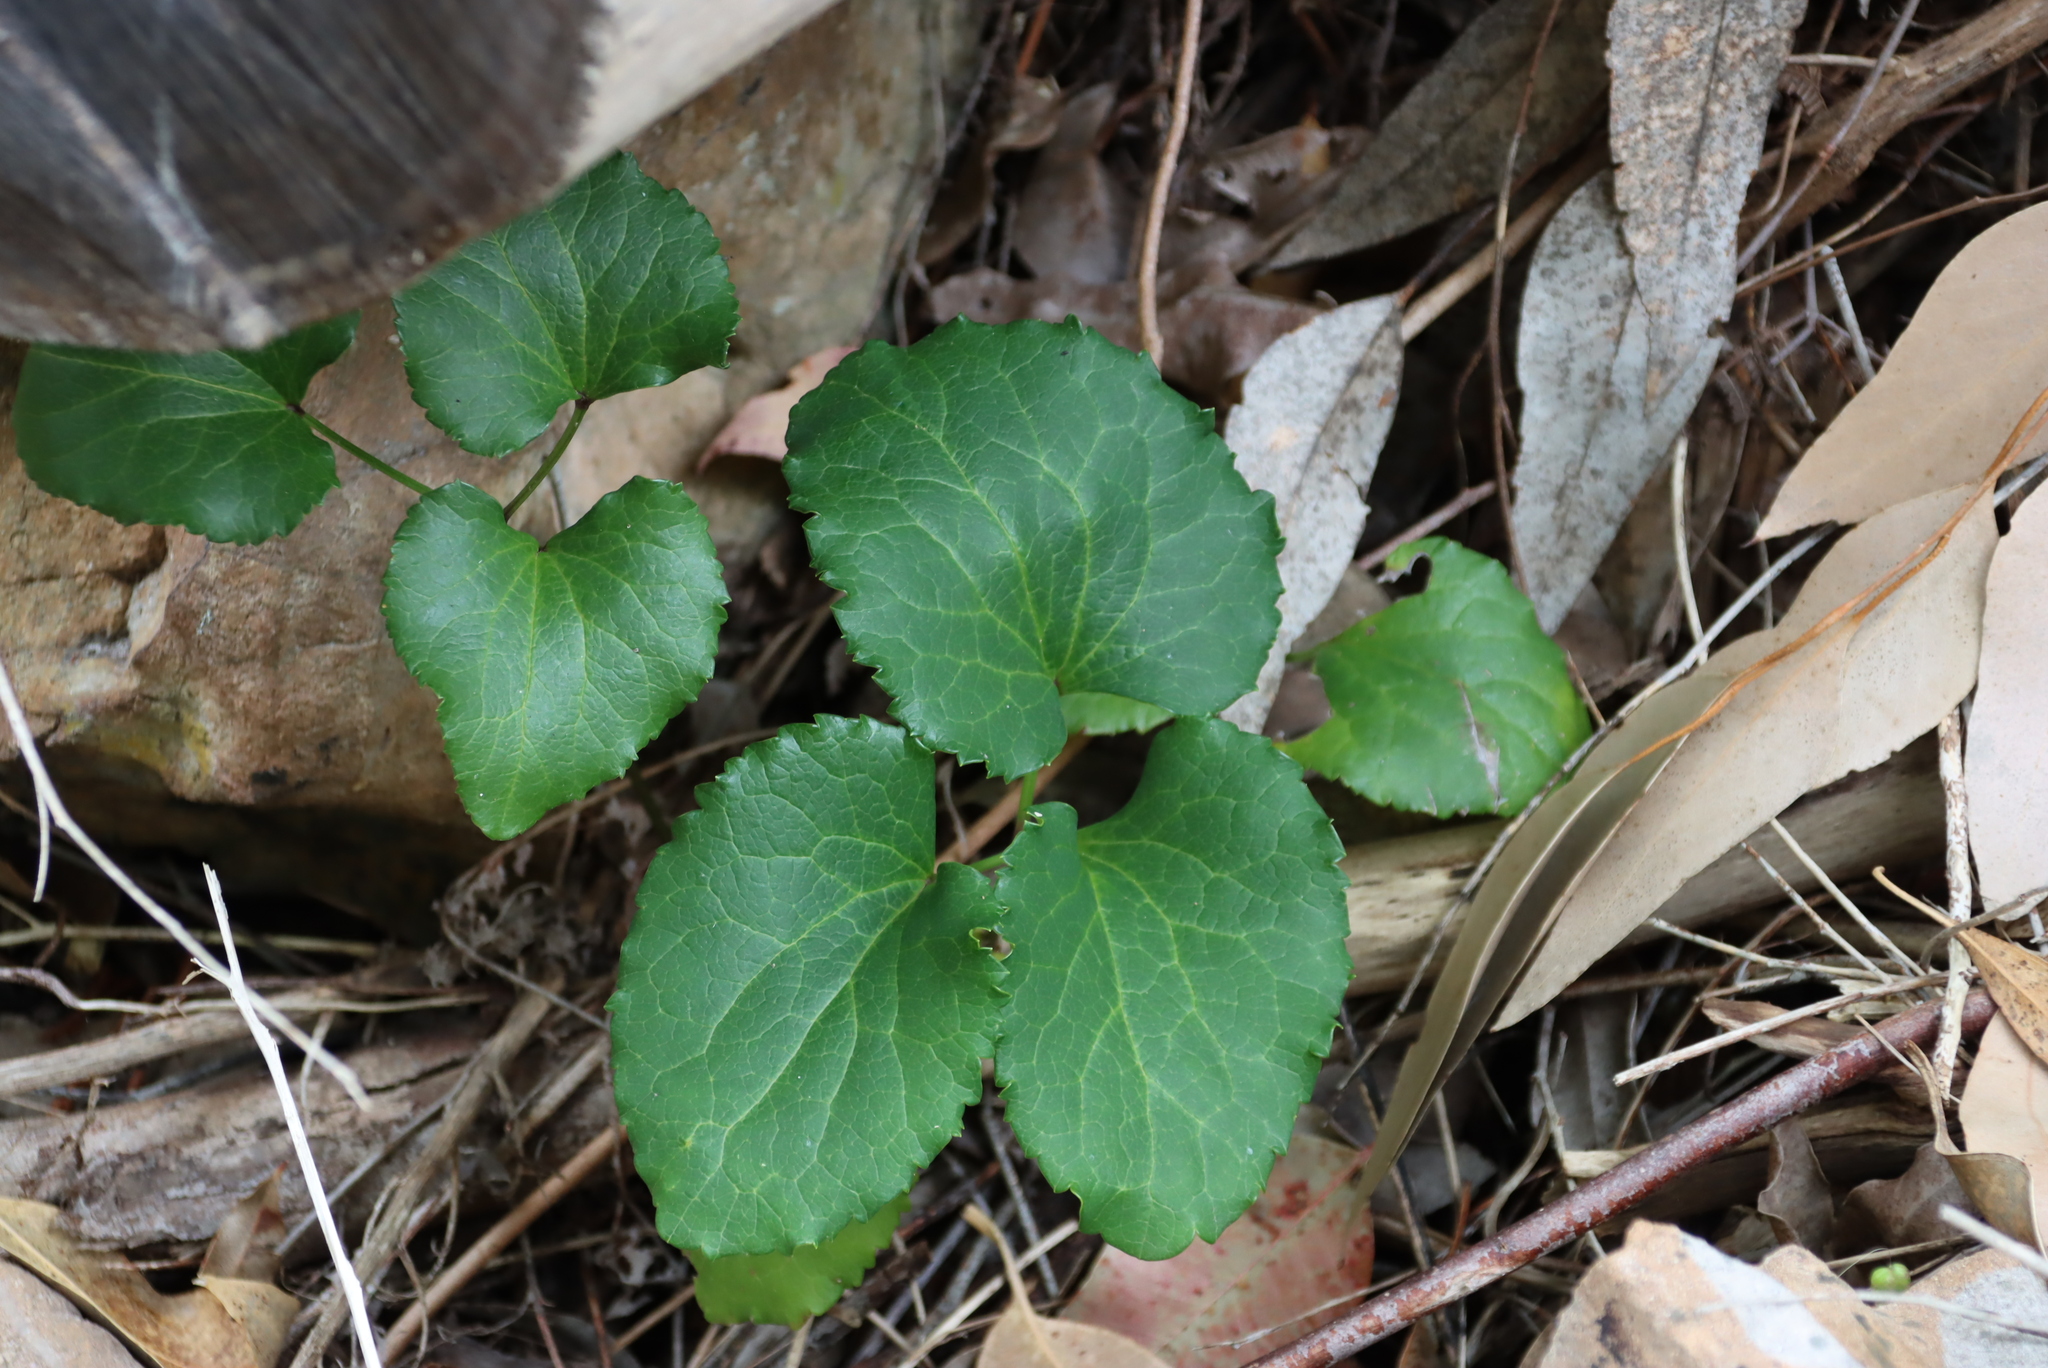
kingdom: Plantae
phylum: Tracheophyta
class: Magnoliopsida
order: Ranunculales
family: Ranunculaceae
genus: Knowltonia
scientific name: Knowltonia vesicatoria
